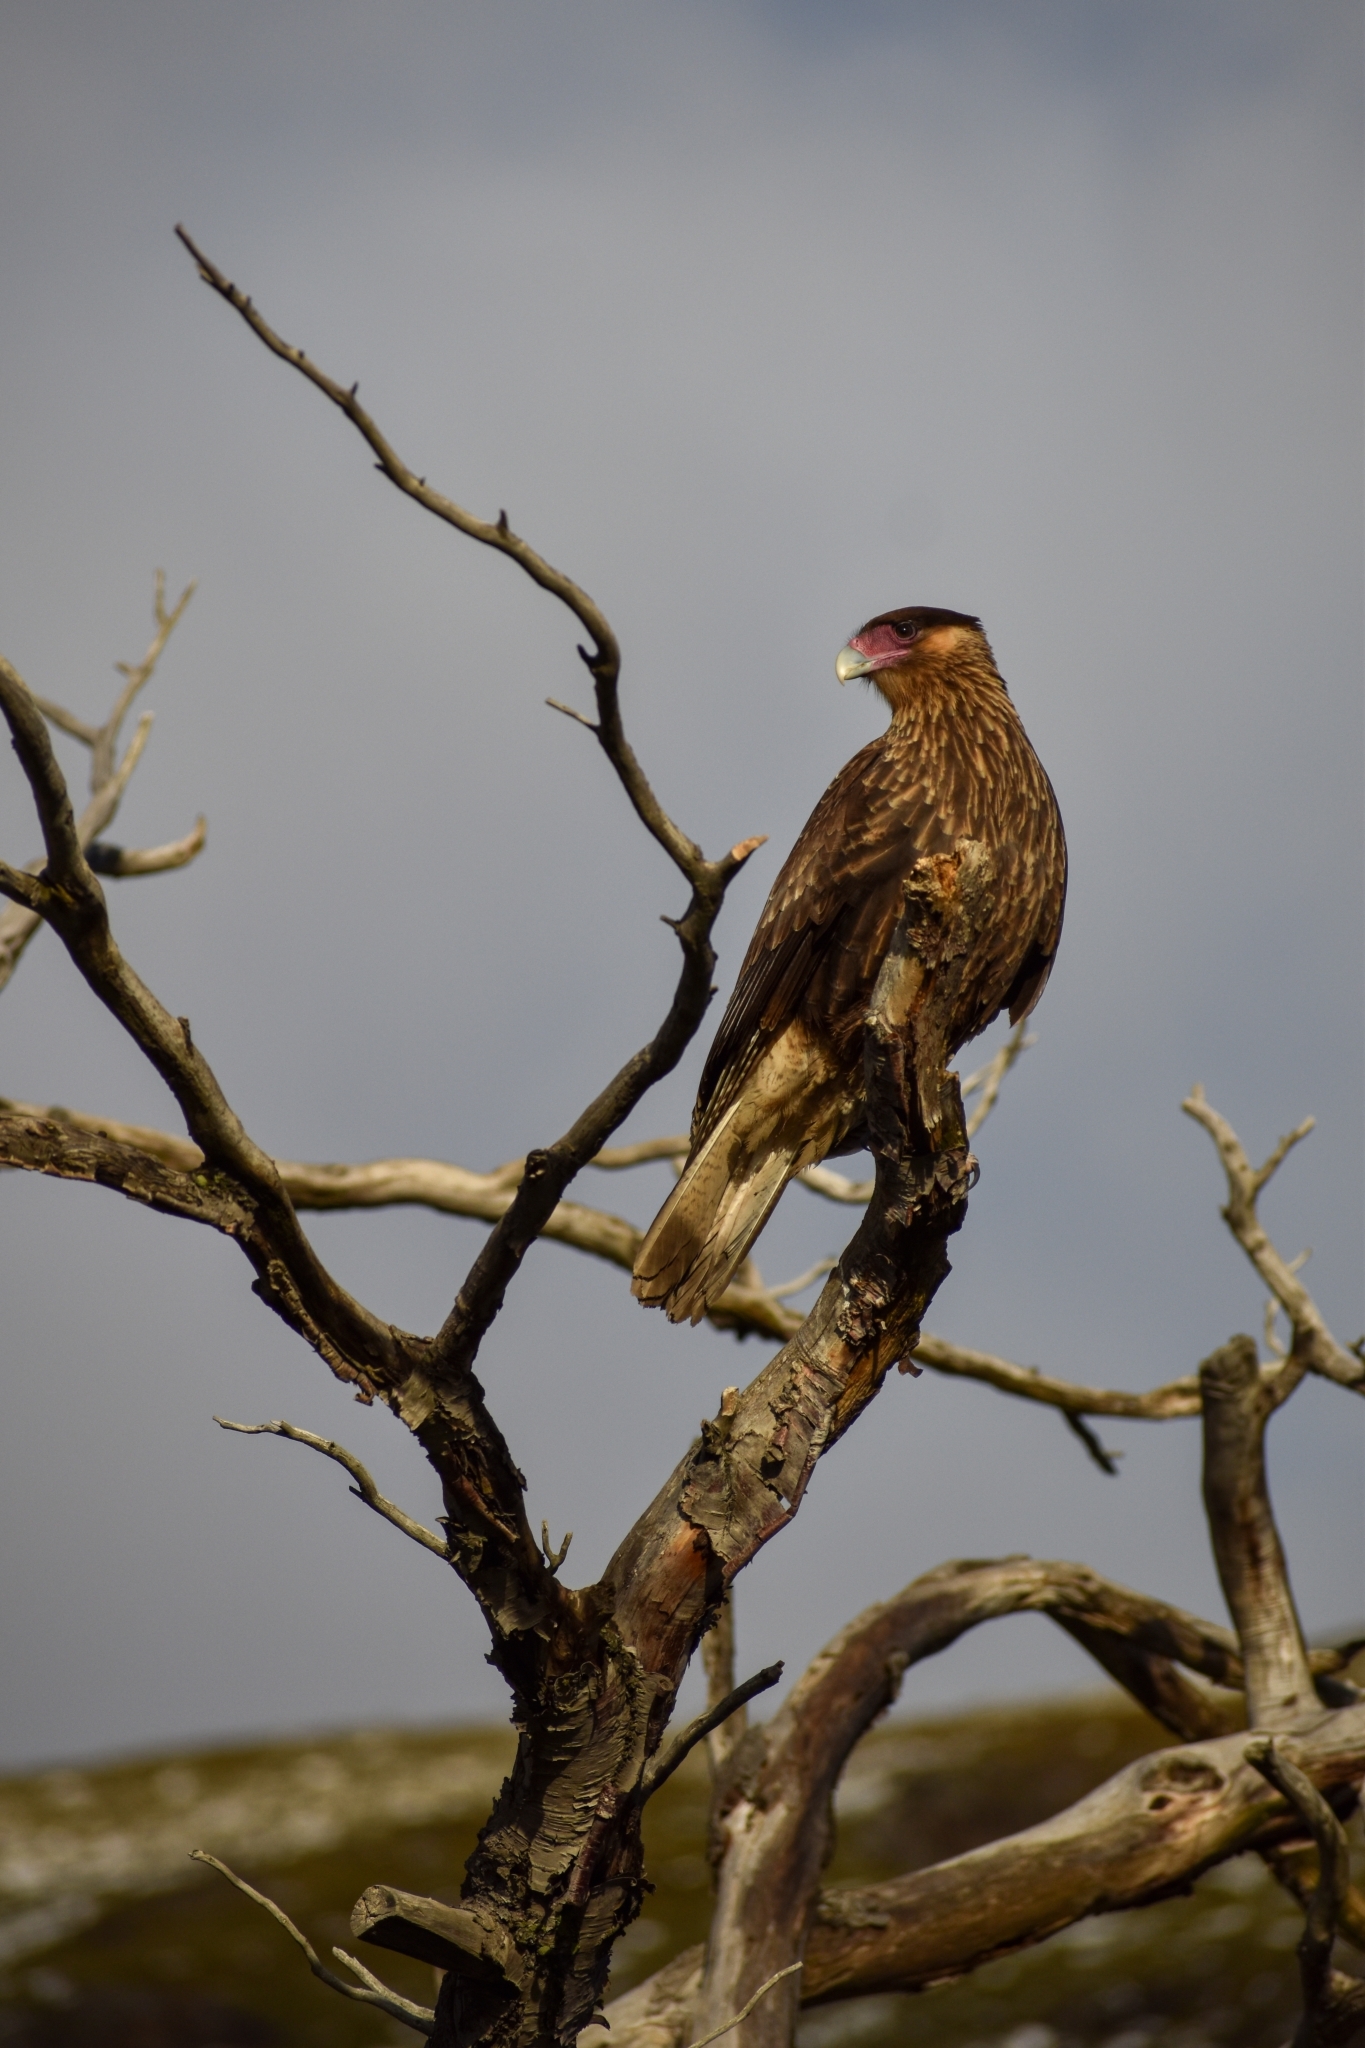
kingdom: Animalia
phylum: Chordata
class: Aves
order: Falconiformes
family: Falconidae
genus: Caracara
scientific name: Caracara plancus
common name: Southern caracara
